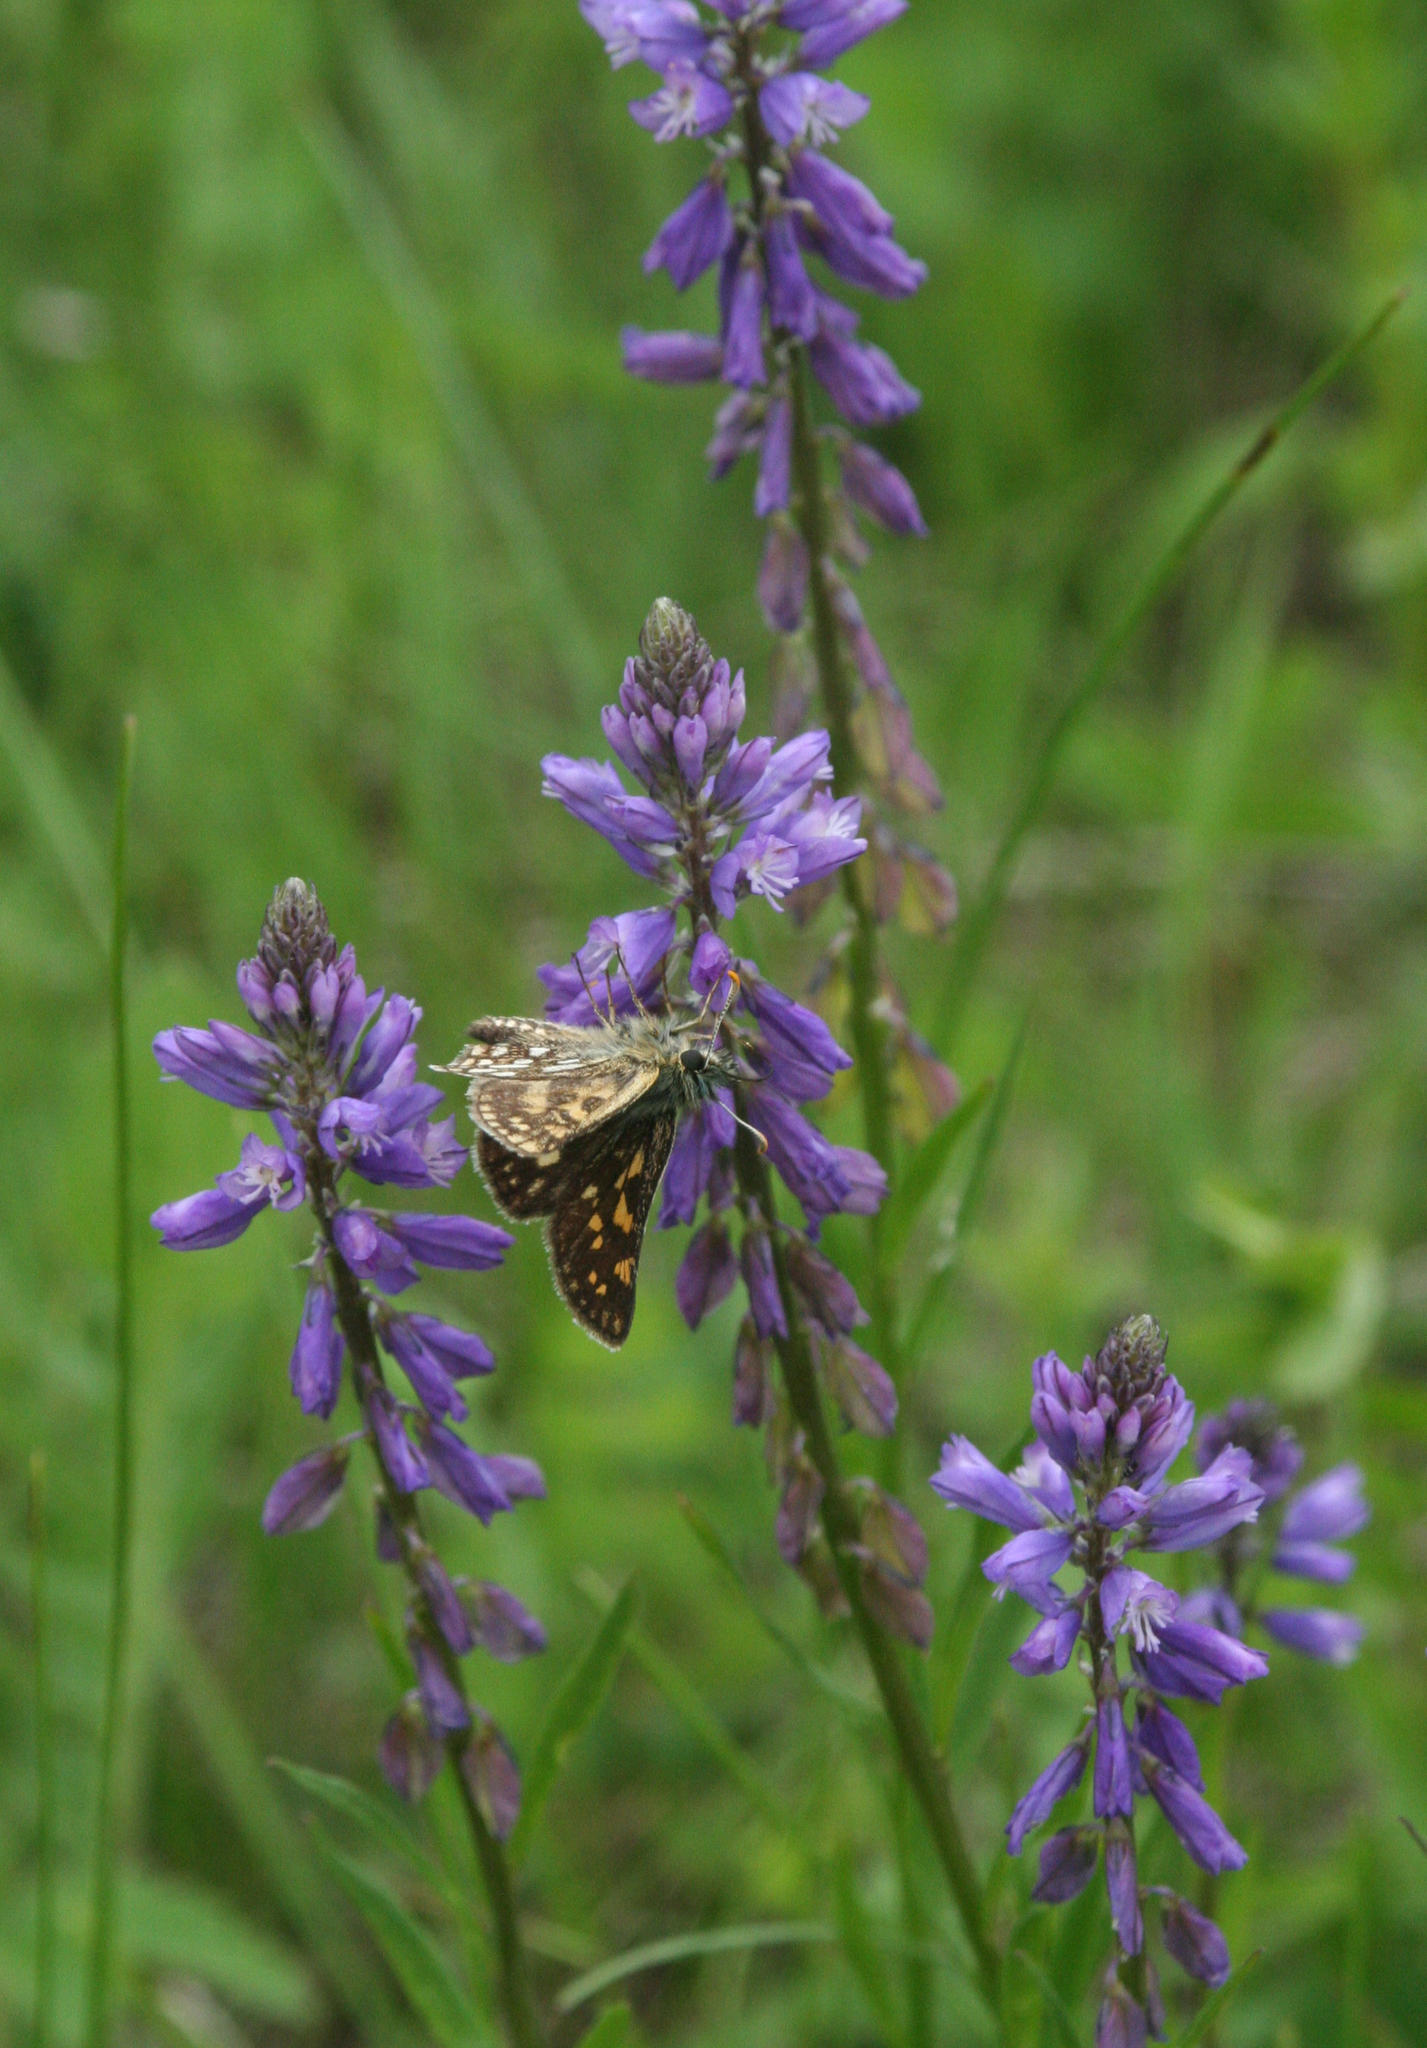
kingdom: Plantae
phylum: Tracheophyta
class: Magnoliopsida
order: Fabales
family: Polygalaceae
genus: Polygala
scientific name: Polygala comosa
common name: Tufted milkwort
